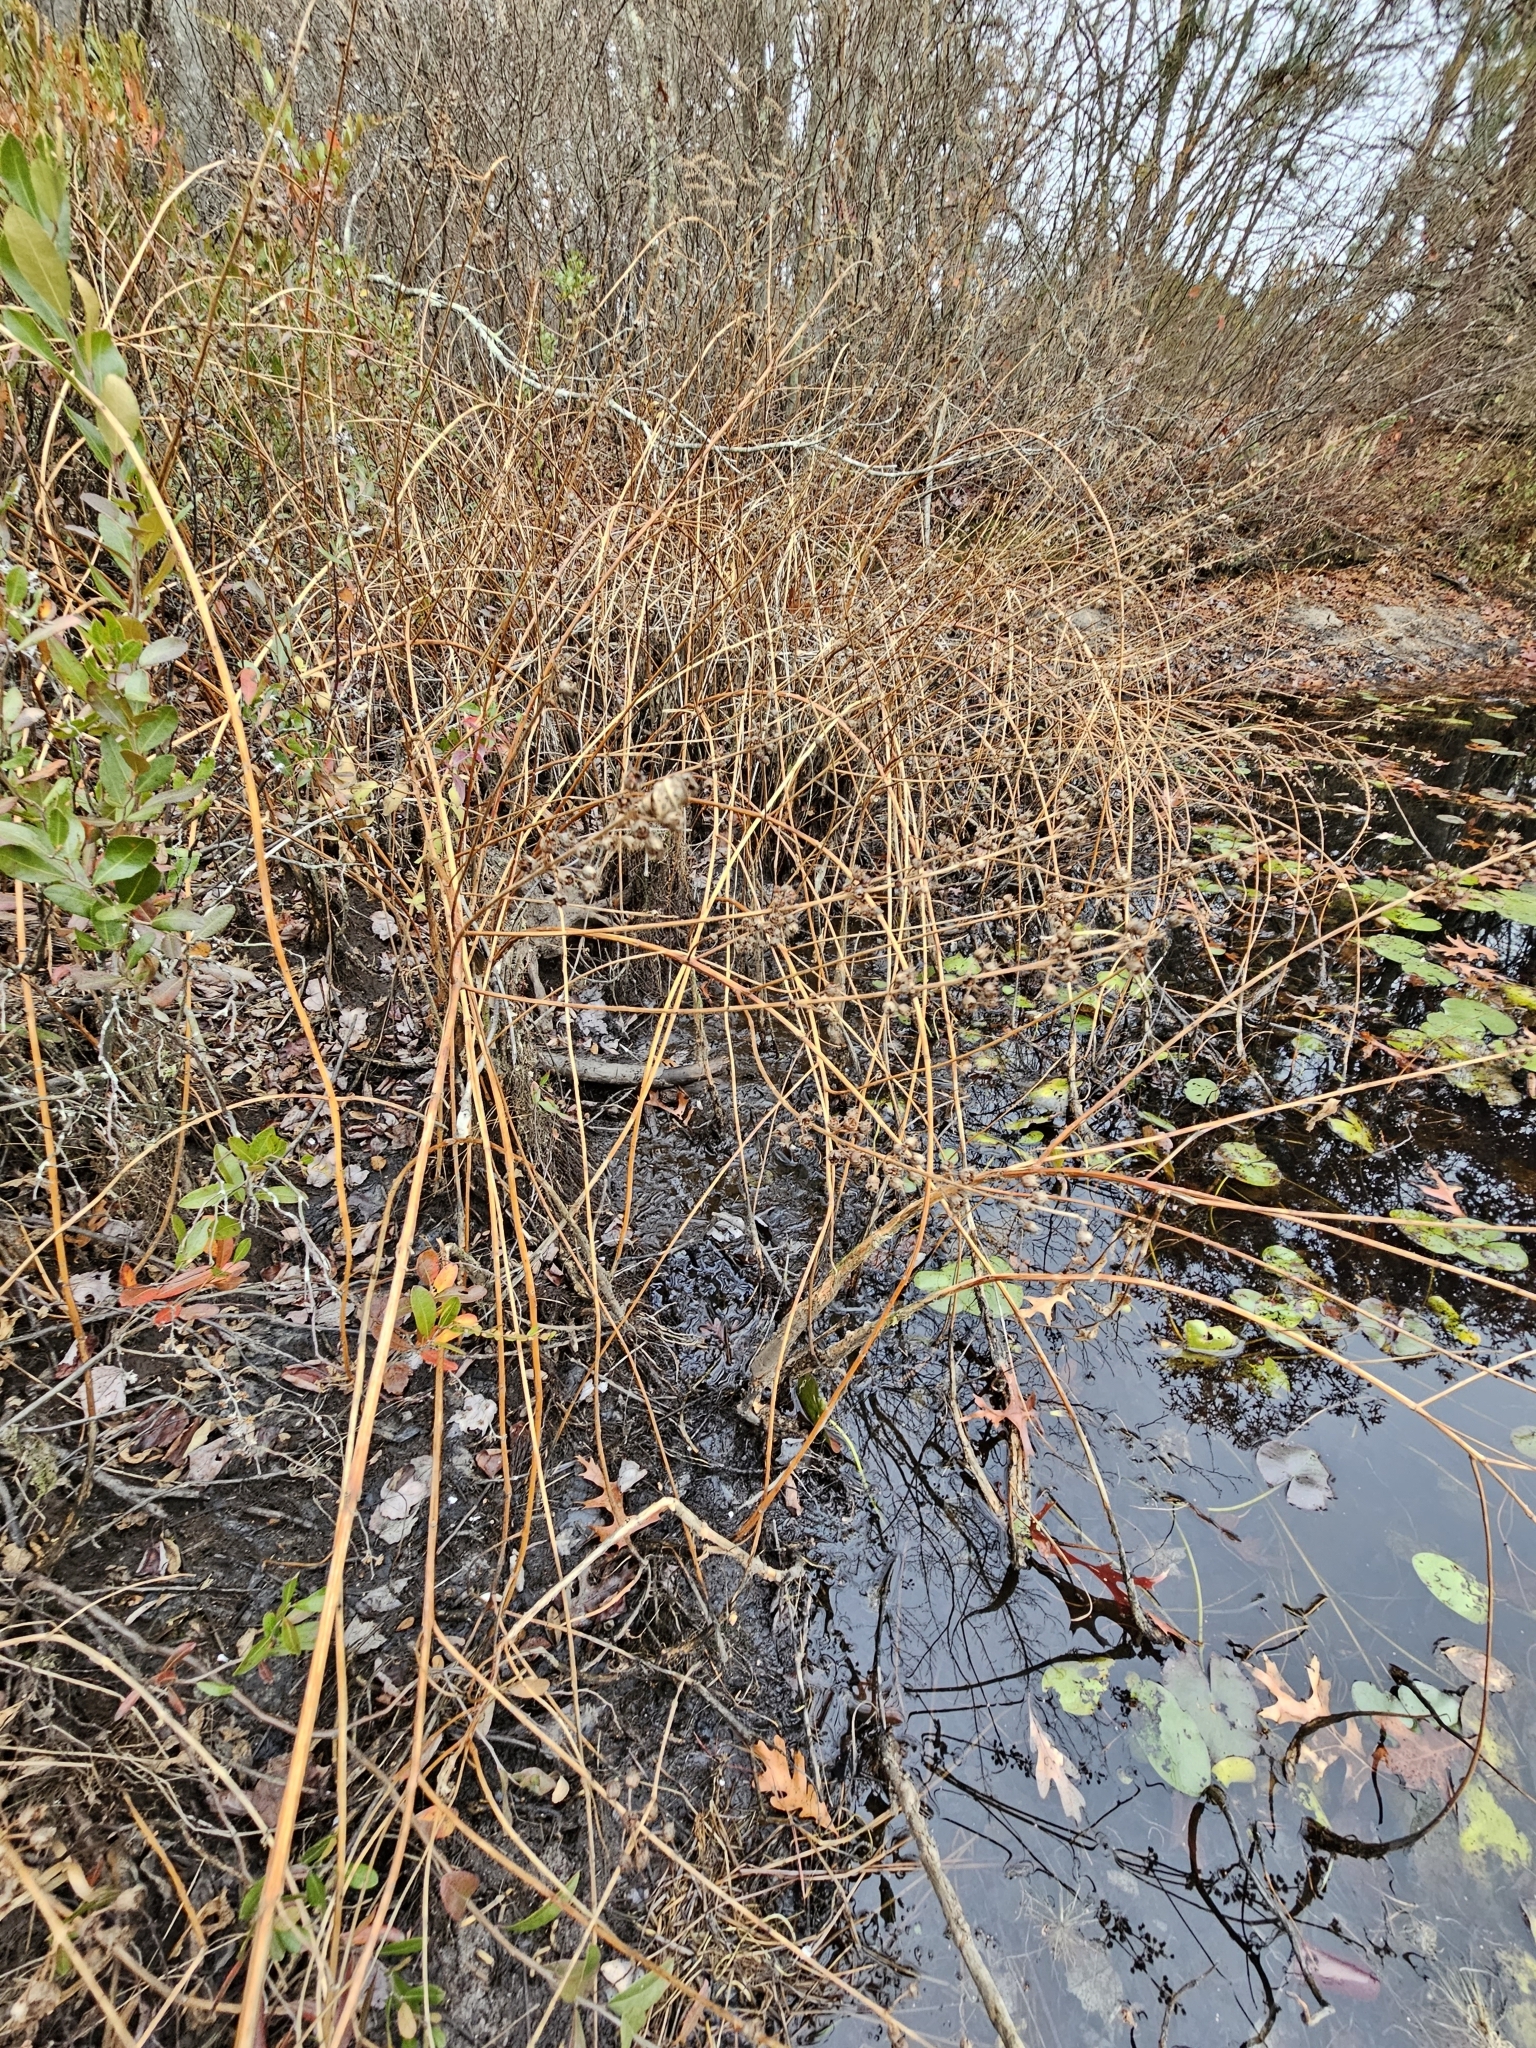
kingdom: Plantae
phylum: Tracheophyta
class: Magnoliopsida
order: Myrtales
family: Lythraceae
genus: Decodon
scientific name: Decodon verticillatus
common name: Hairy swamp loosestrife
